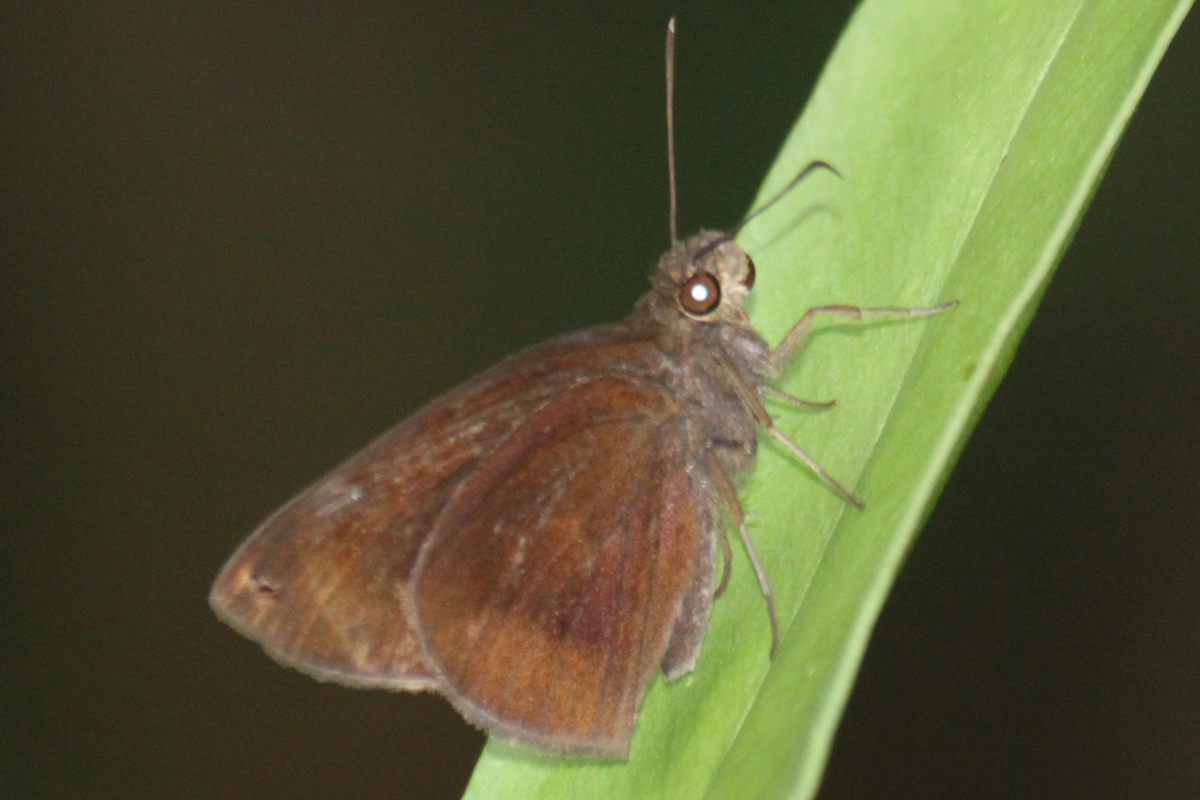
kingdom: Animalia
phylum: Arthropoda
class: Insecta
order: Lepidoptera
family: Hesperiidae
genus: Ancistroides
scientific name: Ancistroides nigrita
